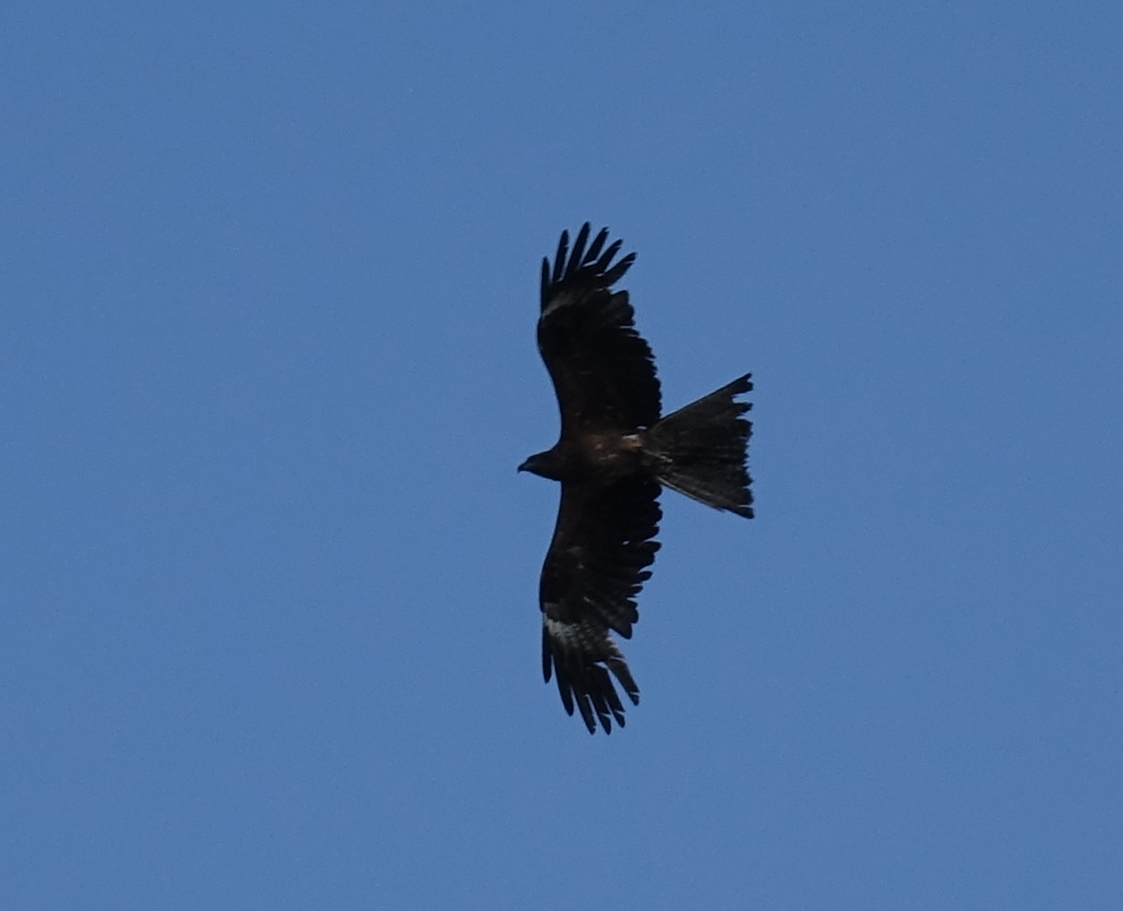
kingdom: Animalia
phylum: Chordata
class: Aves
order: Accipitriformes
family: Accipitridae
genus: Milvus
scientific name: Milvus migrans
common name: Black kite
